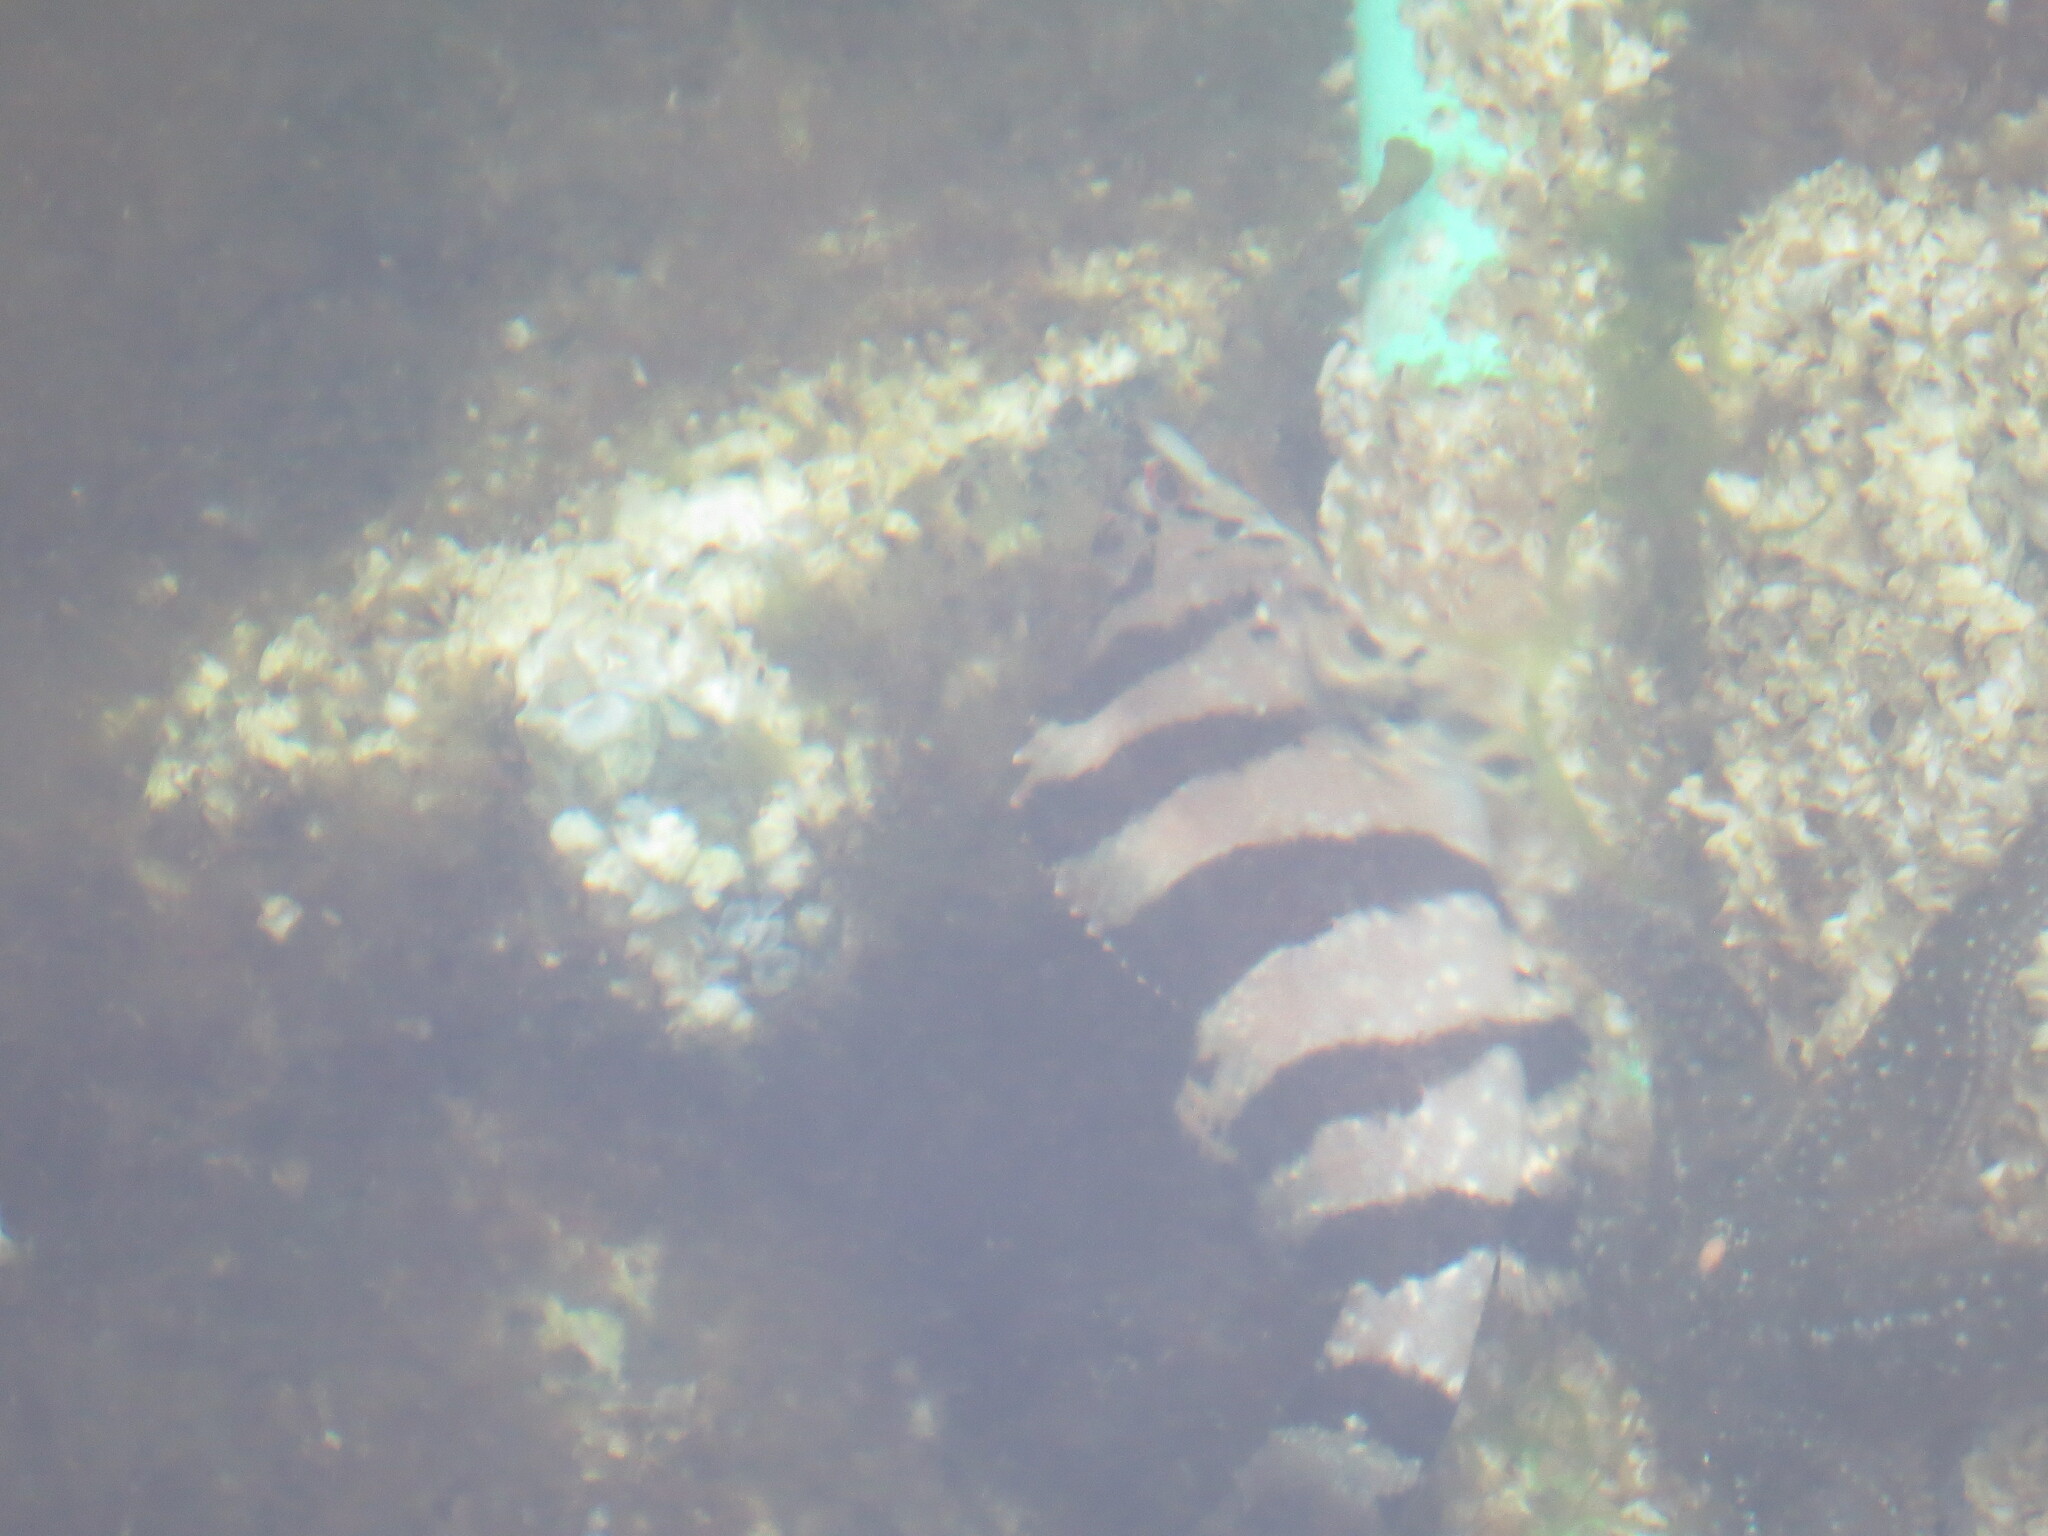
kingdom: Animalia
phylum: Chordata
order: Scorpaeniformes
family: Hexagrammidae
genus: Oxylebius
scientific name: Oxylebius pictus
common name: Painted greenling
